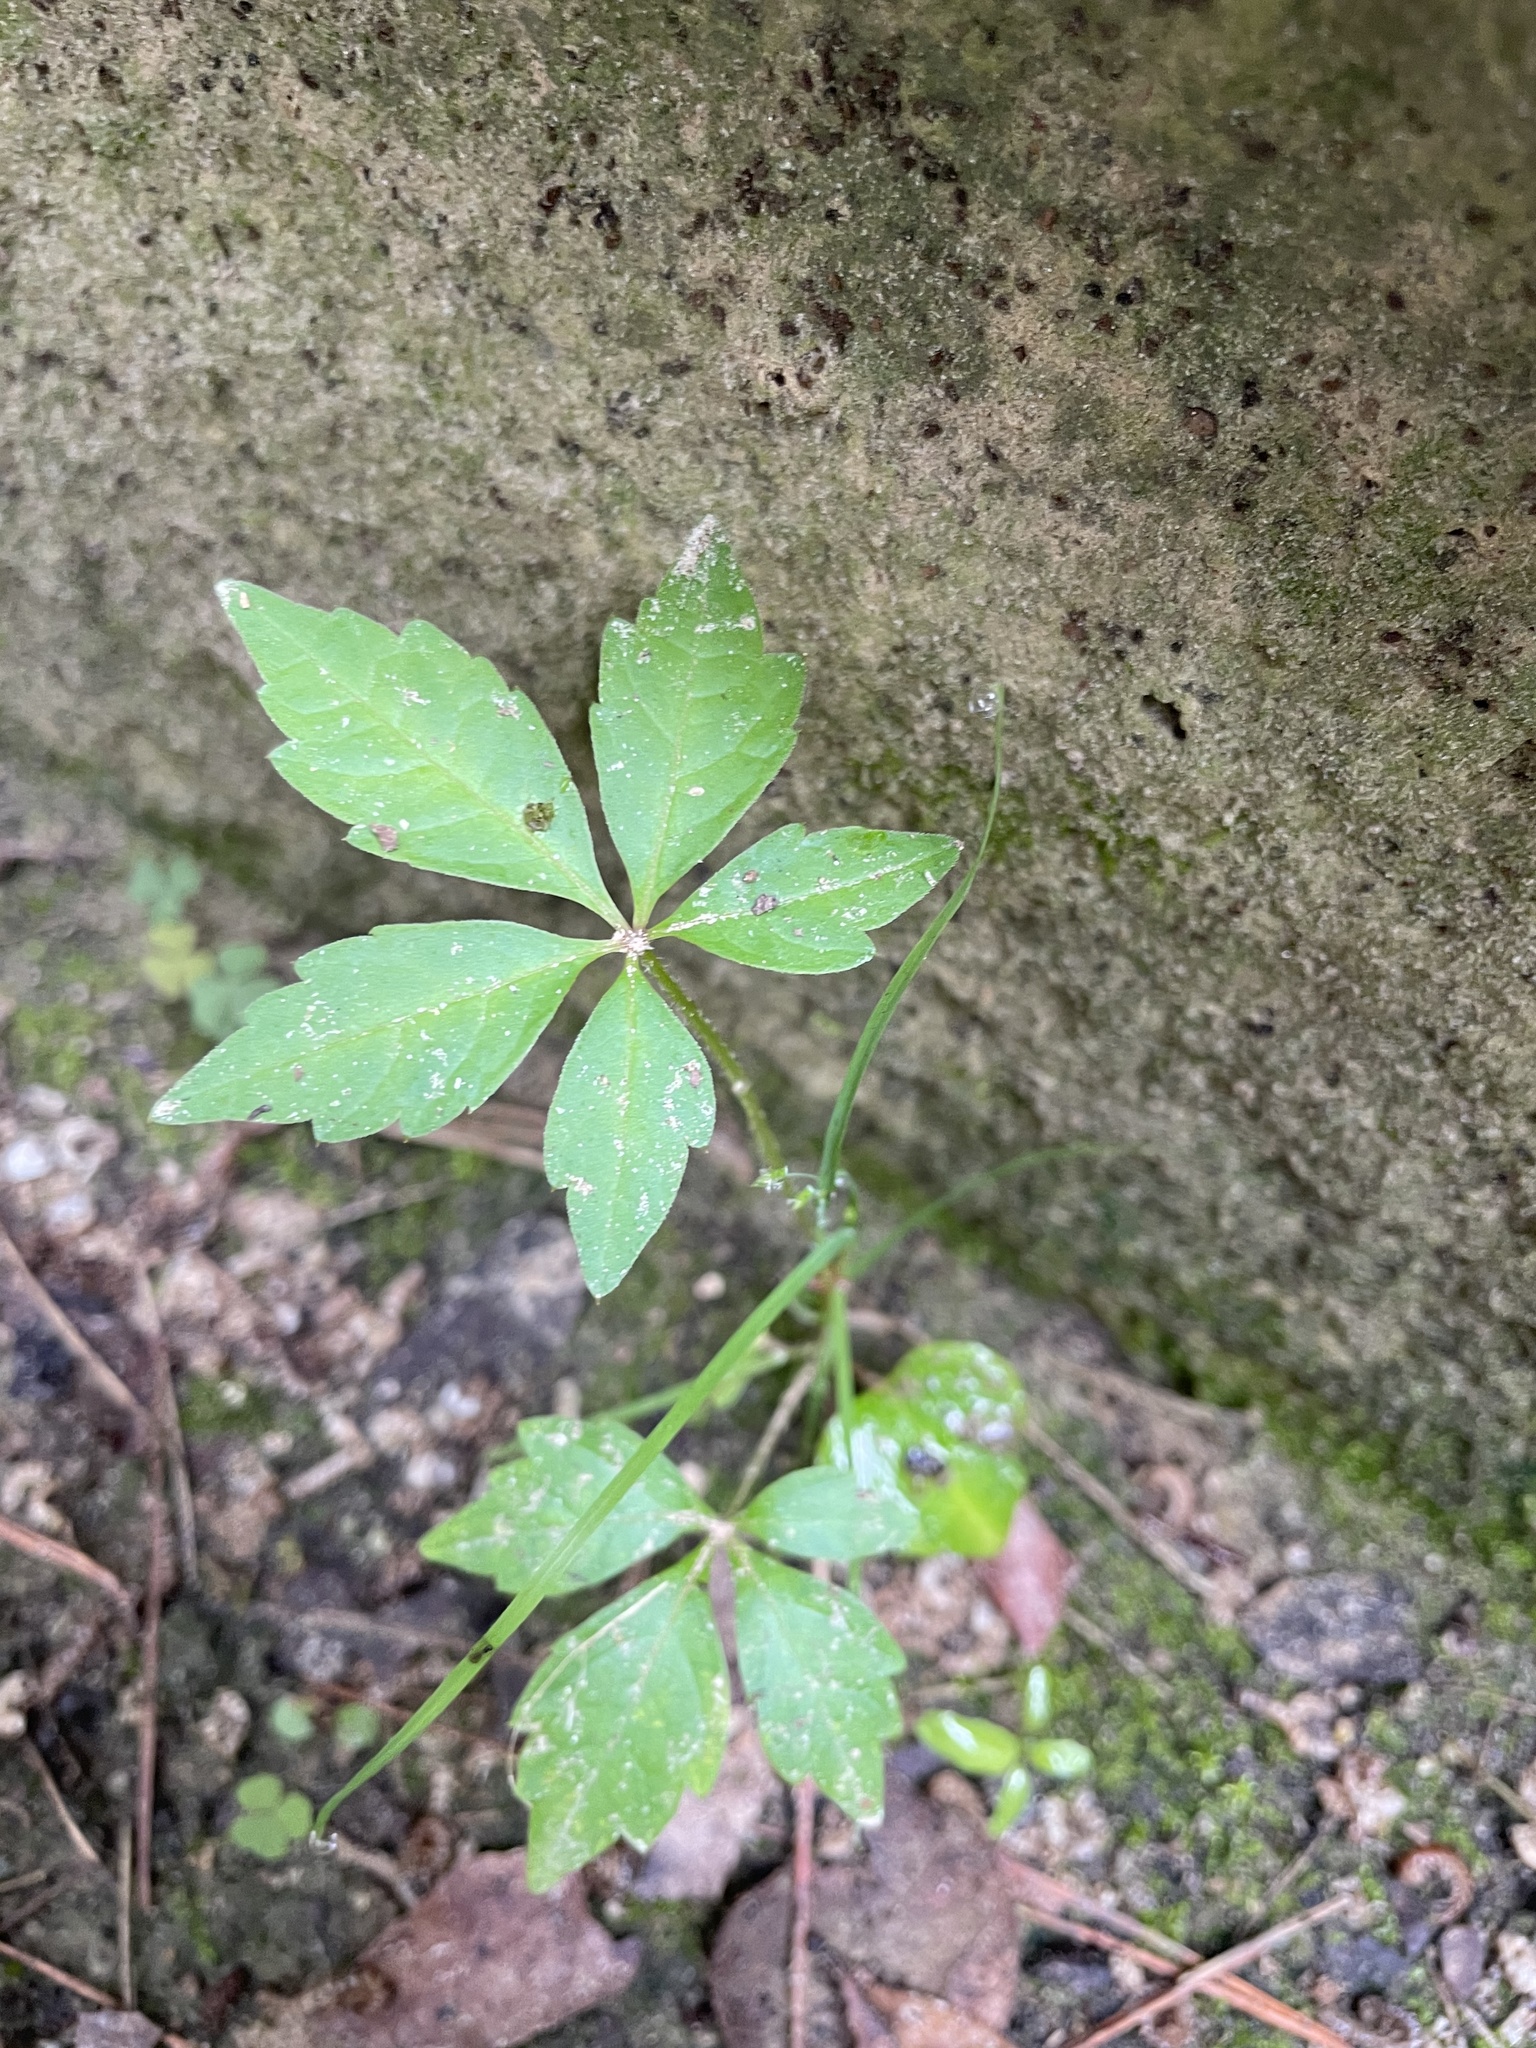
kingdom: Plantae
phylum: Tracheophyta
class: Magnoliopsida
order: Vitales
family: Vitaceae
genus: Parthenocissus
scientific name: Parthenocissus quinquefolia
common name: Virginia-creeper
